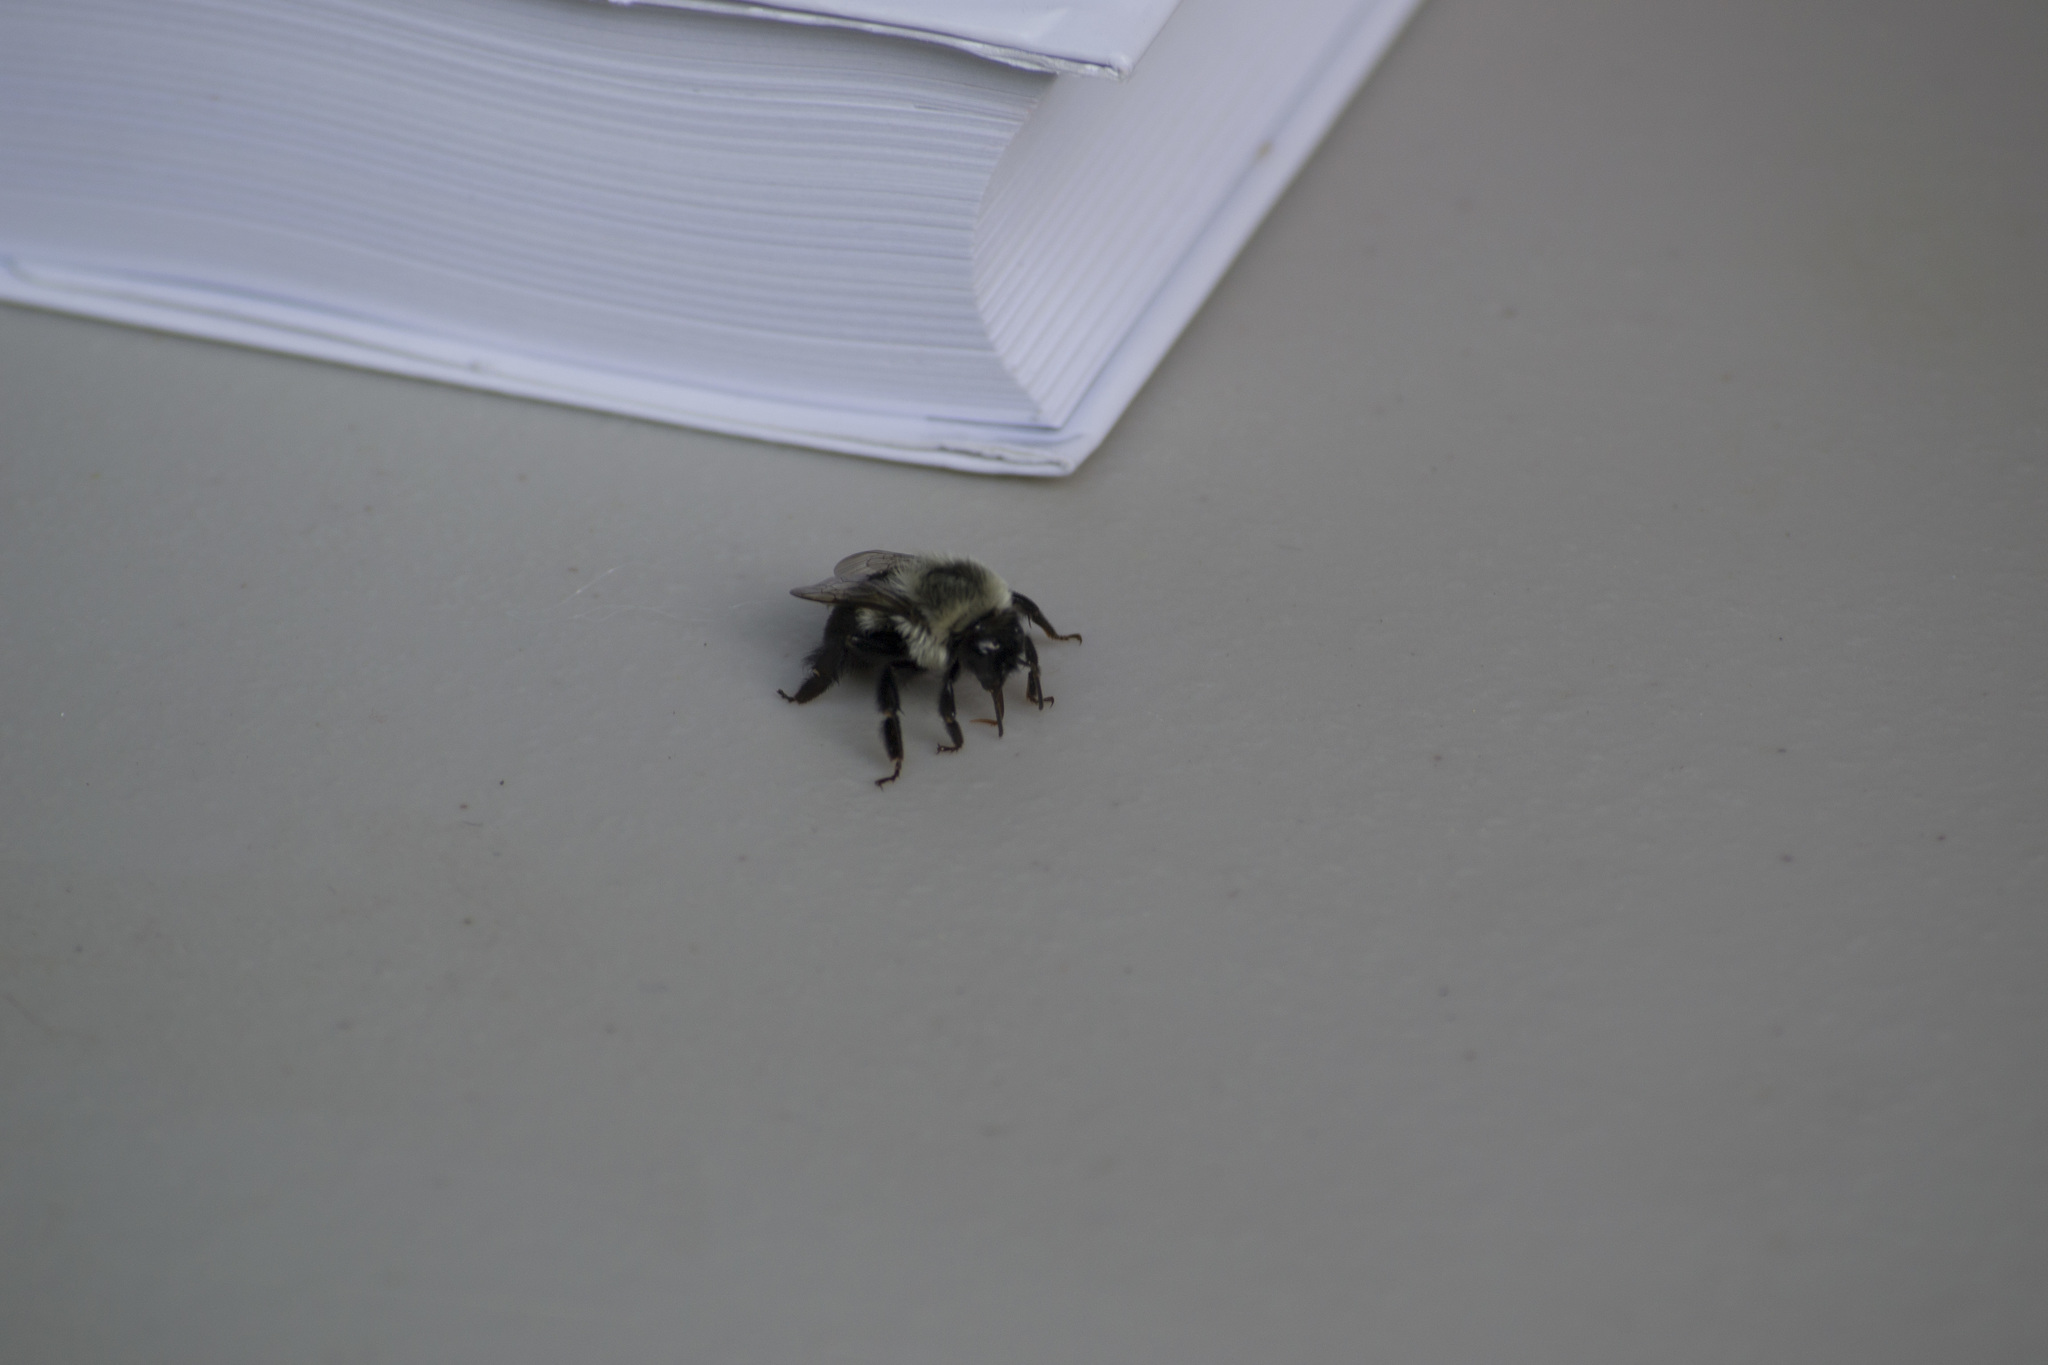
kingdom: Animalia
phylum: Arthropoda
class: Insecta
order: Hymenoptera
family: Apidae
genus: Bombus
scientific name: Bombus impatiens
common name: Common eastern bumble bee
